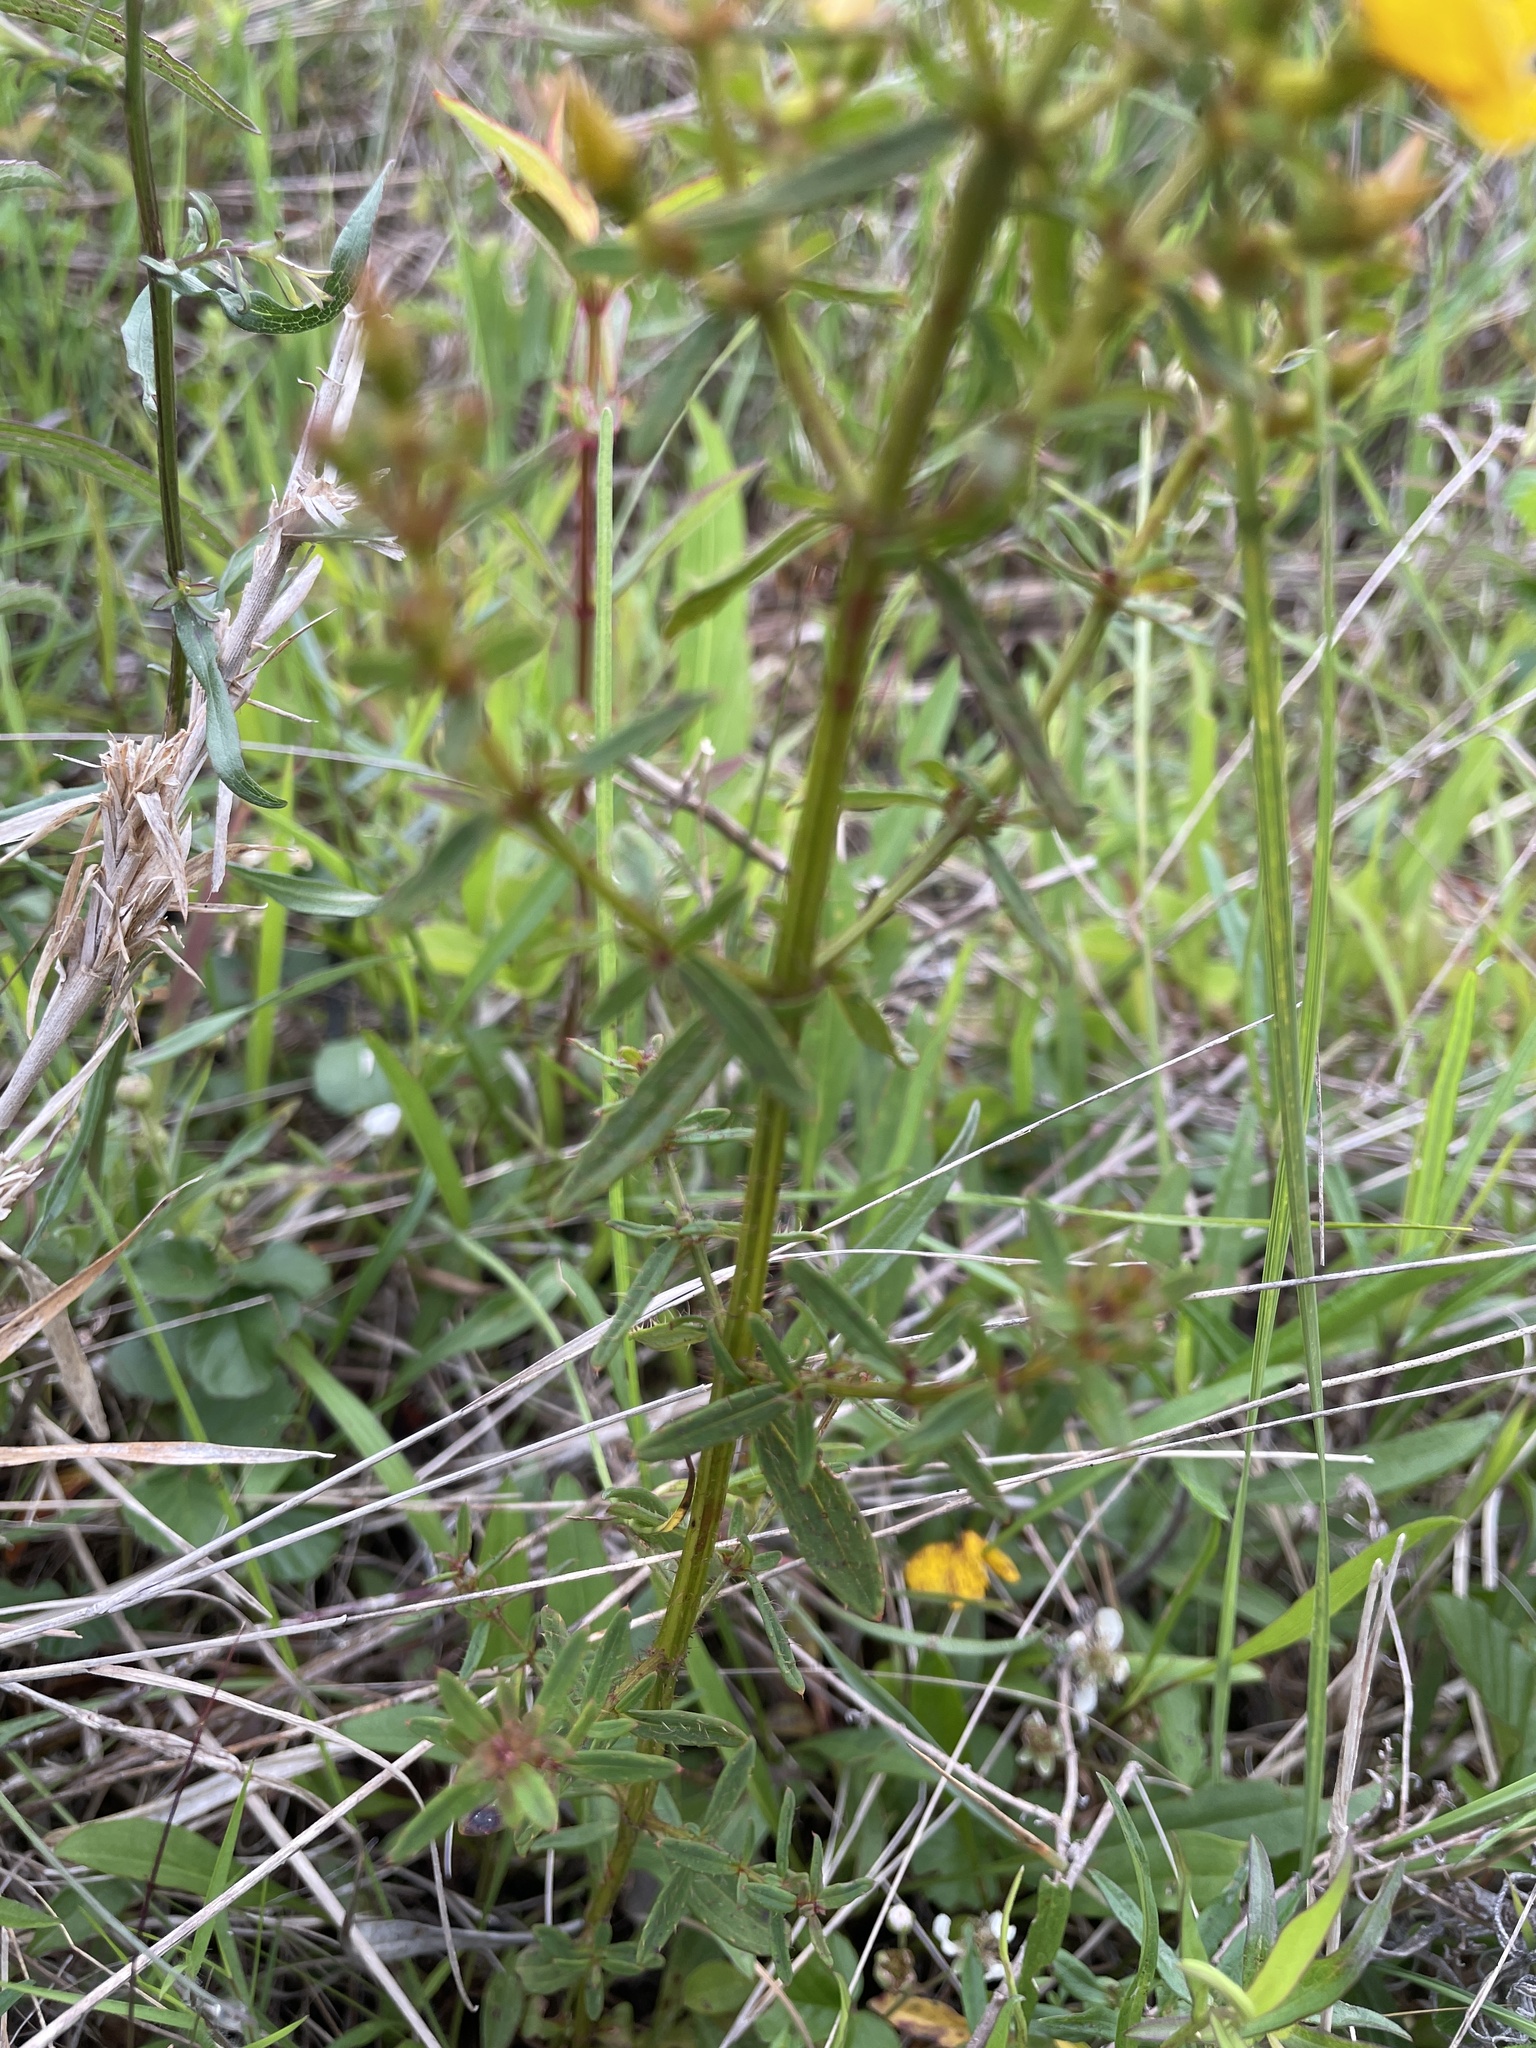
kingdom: Plantae
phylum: Tracheophyta
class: Magnoliopsida
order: Myrtales
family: Melastomataceae
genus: Rhexia
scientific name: Rhexia lutea
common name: Golden meadow-beauty
